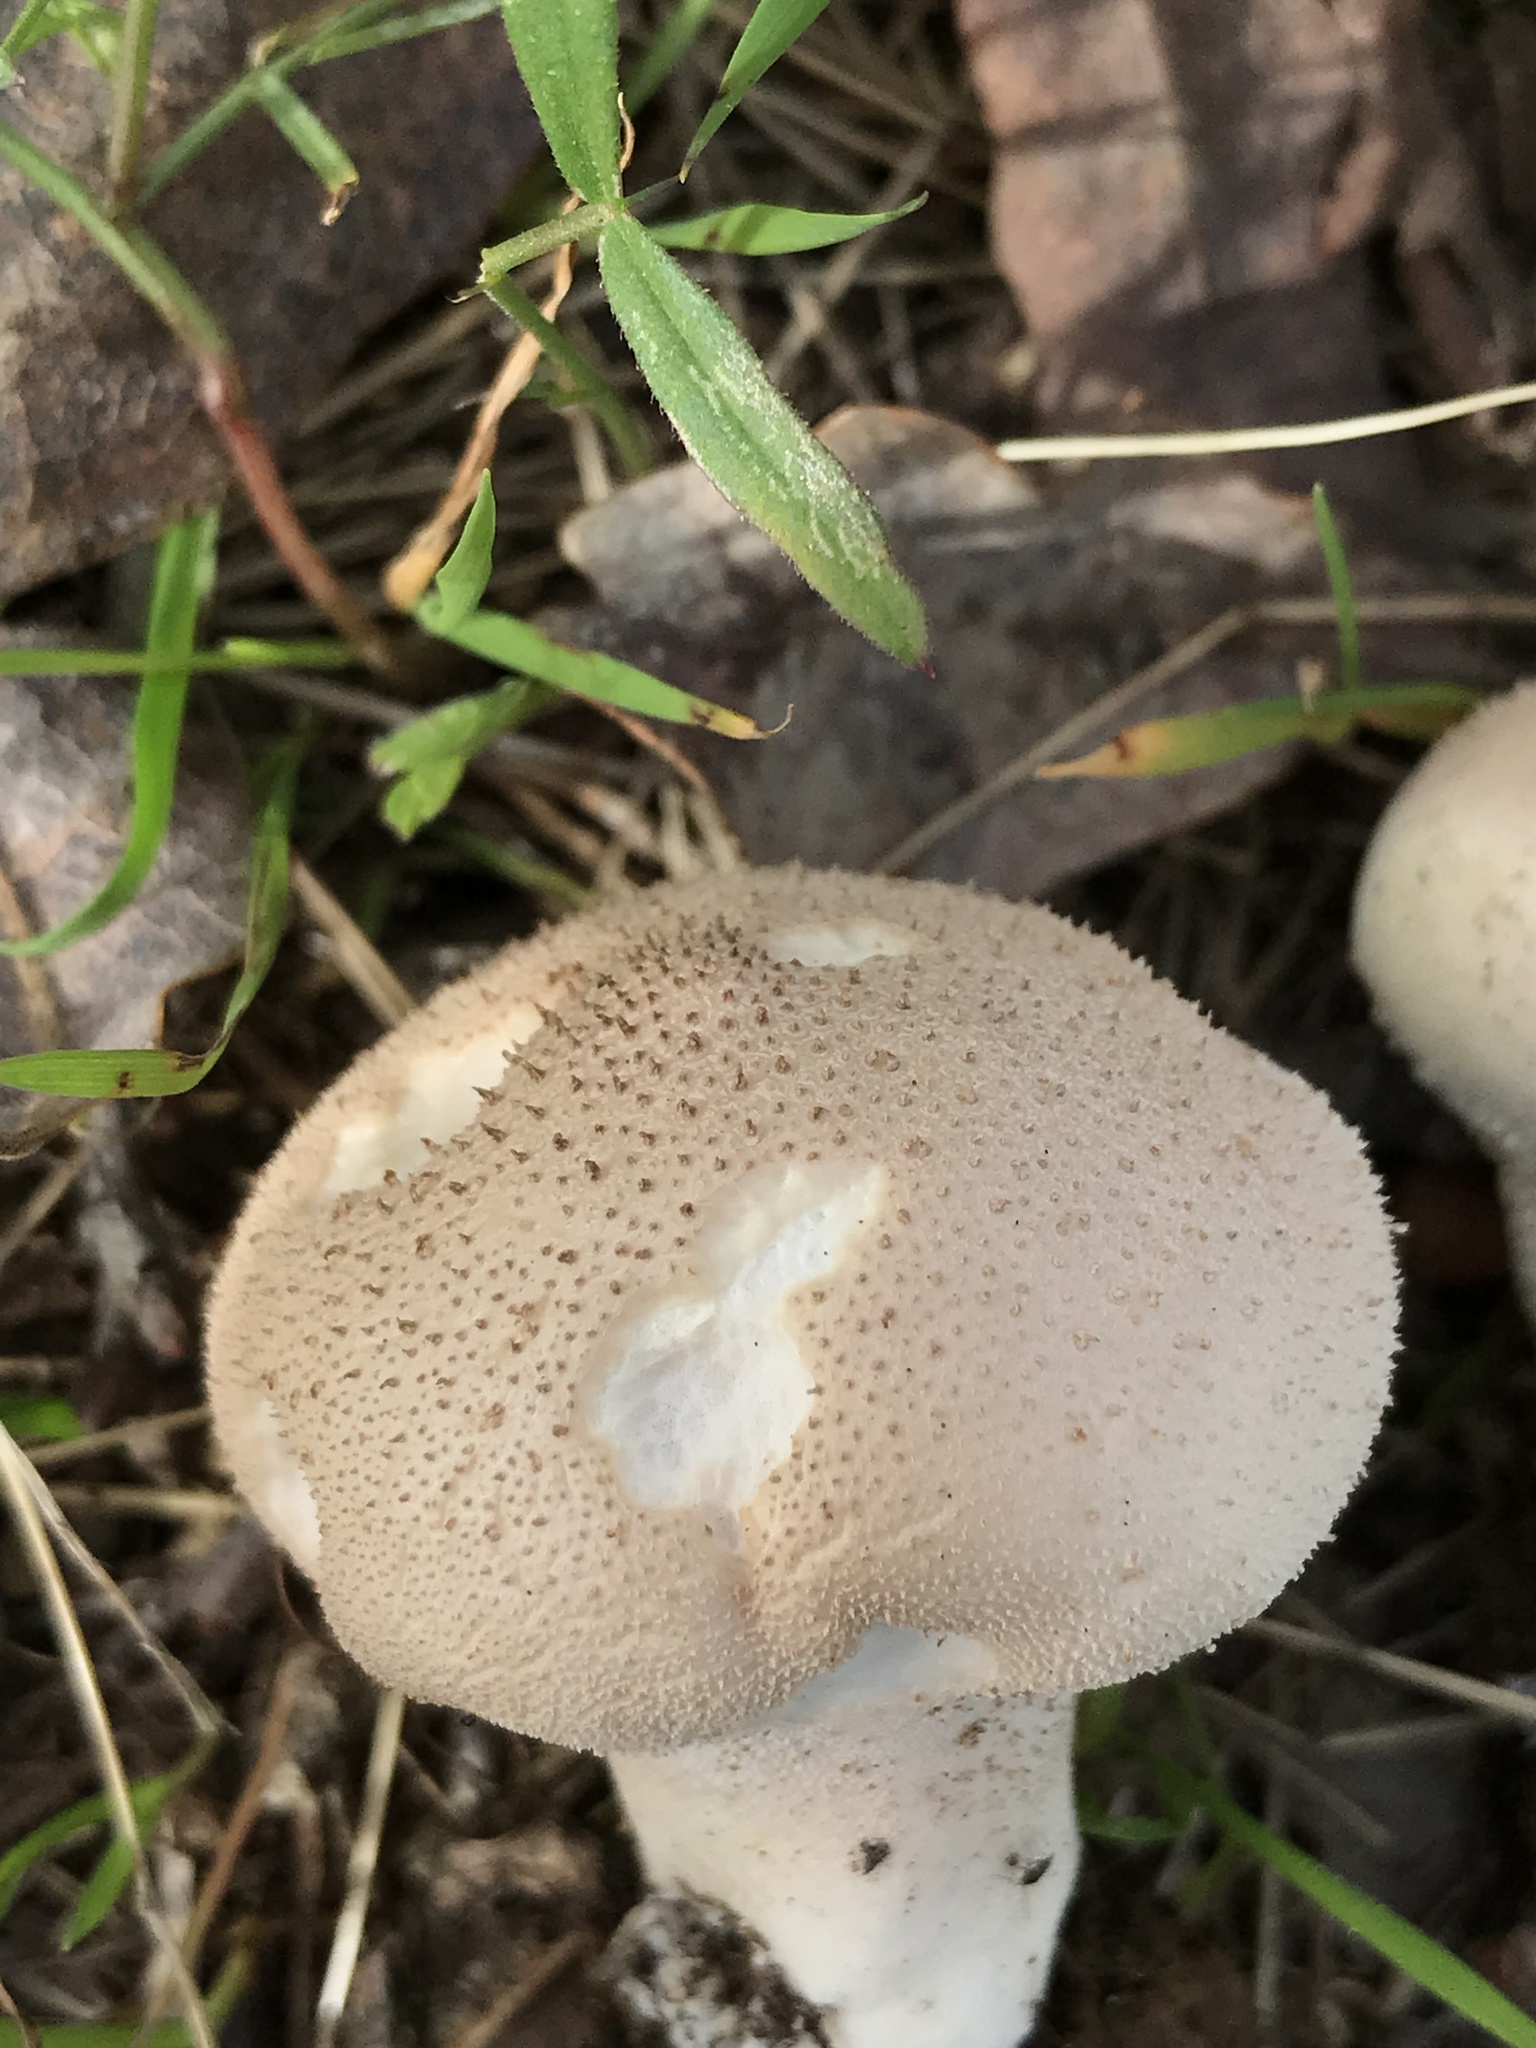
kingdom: Fungi
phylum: Basidiomycota
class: Agaricomycetes
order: Agaricales
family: Lycoperdaceae
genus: Lycoperdon
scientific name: Lycoperdon perlatum
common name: Common puffball
